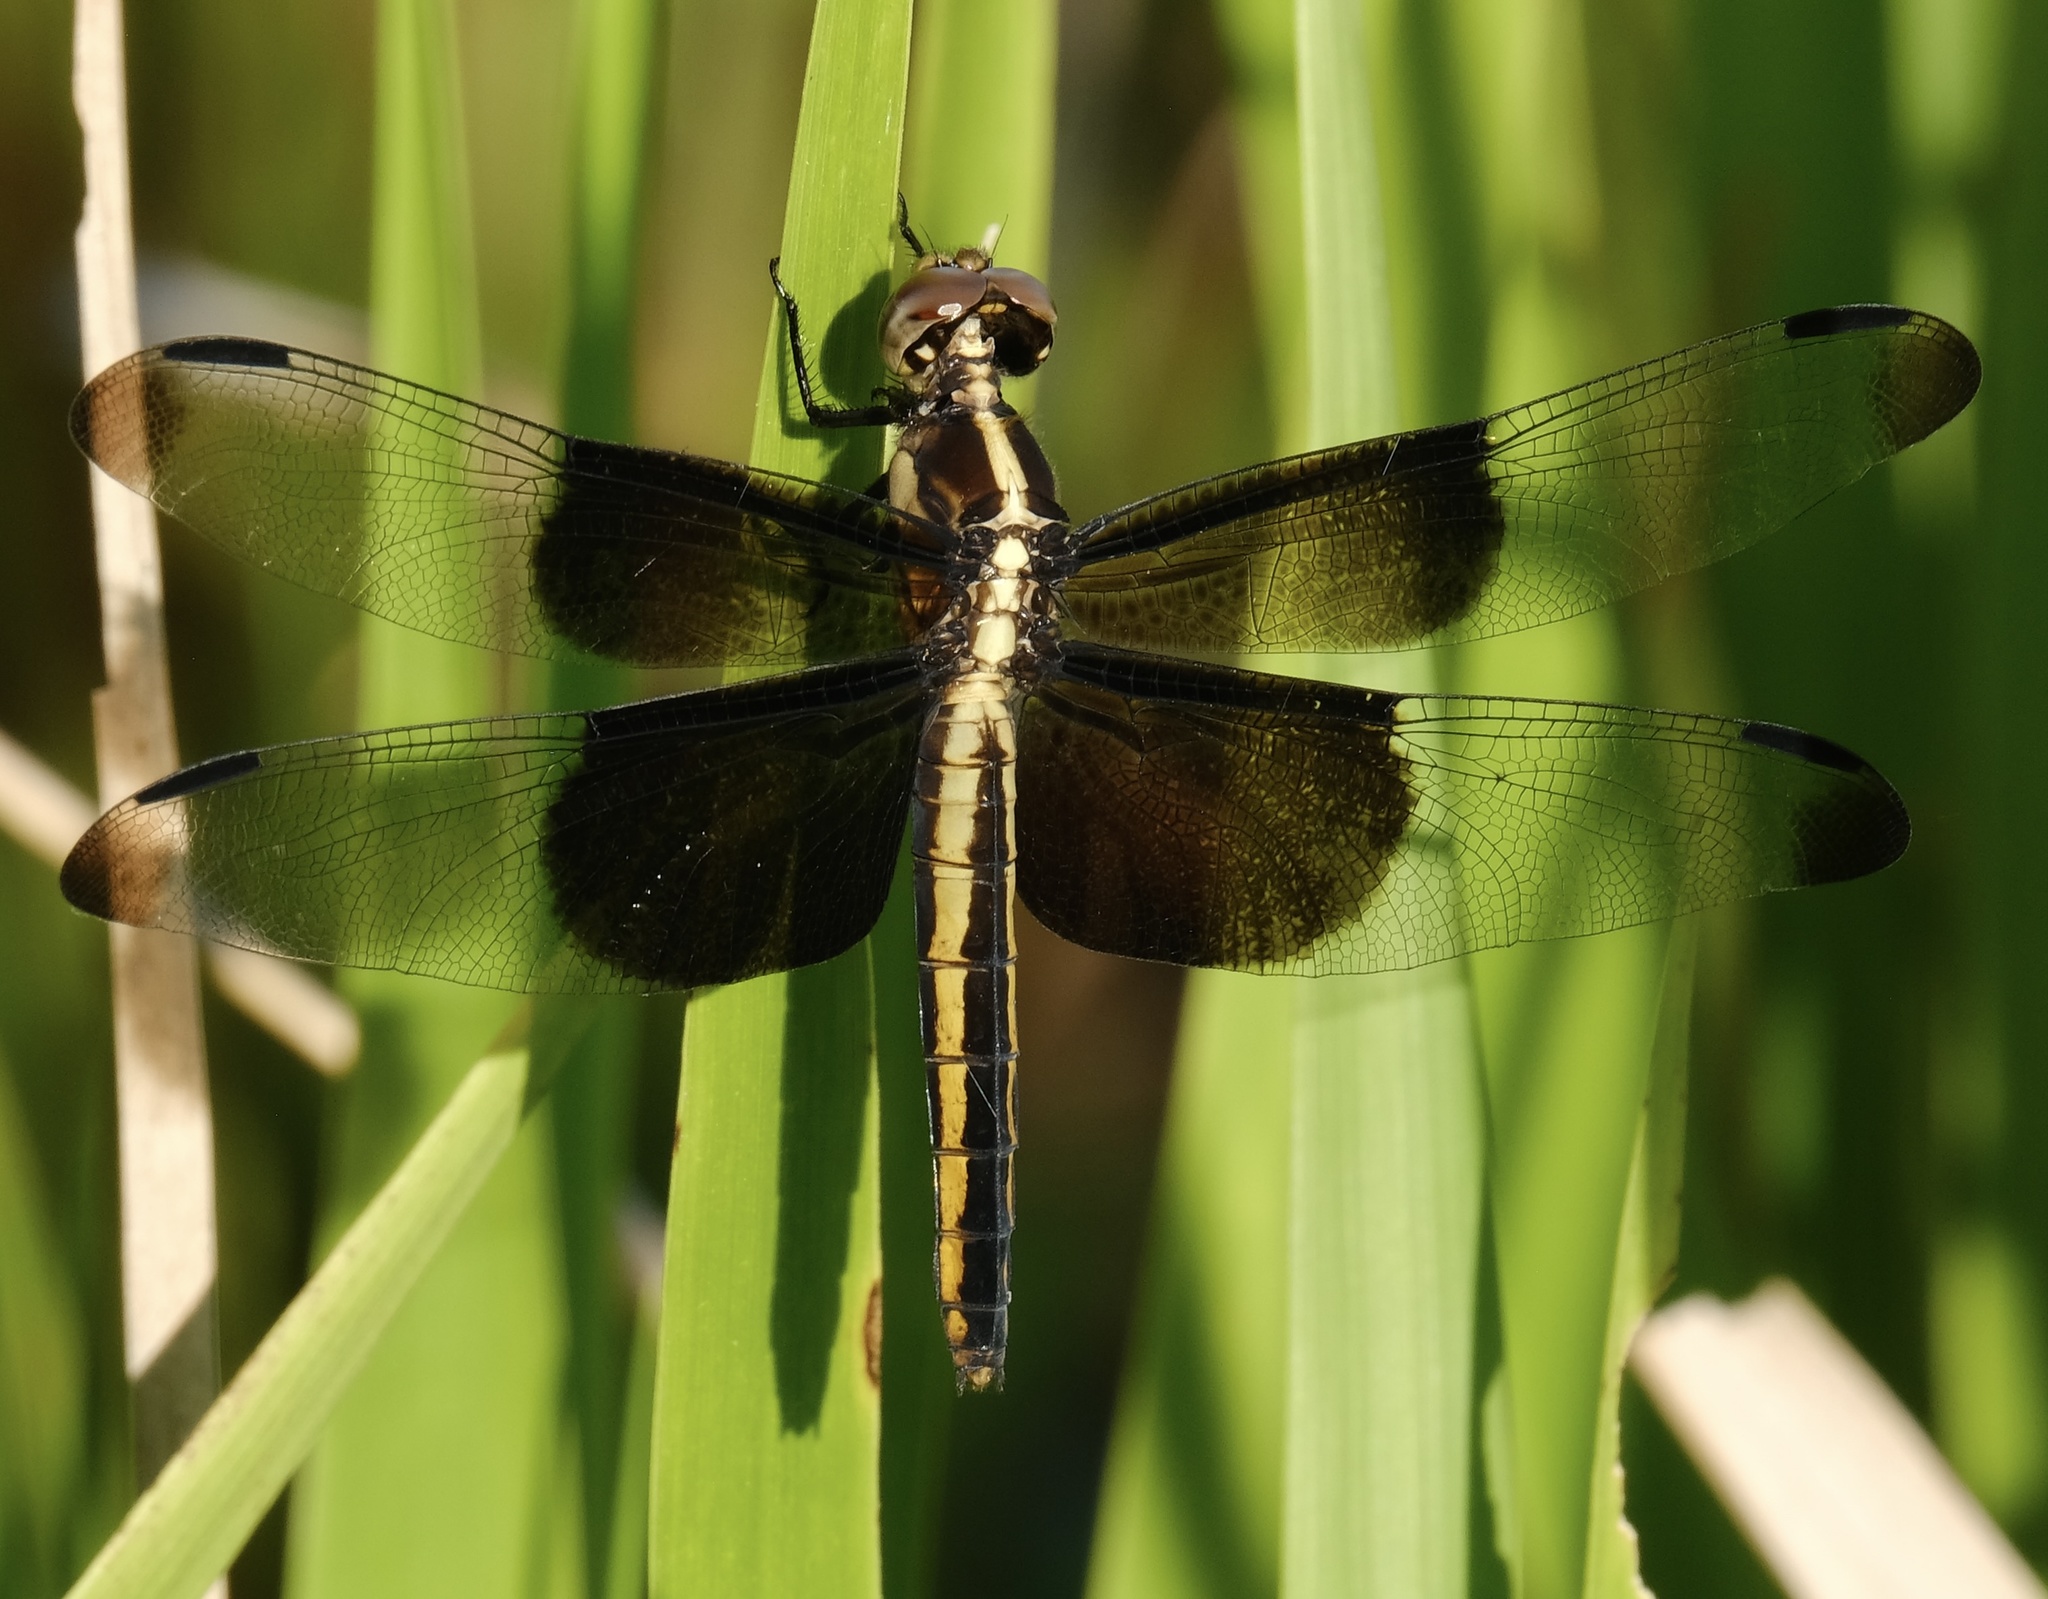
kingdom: Animalia
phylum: Arthropoda
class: Insecta
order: Odonata
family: Libellulidae
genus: Libellula
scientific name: Libellula luctuosa
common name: Widow skimmer
